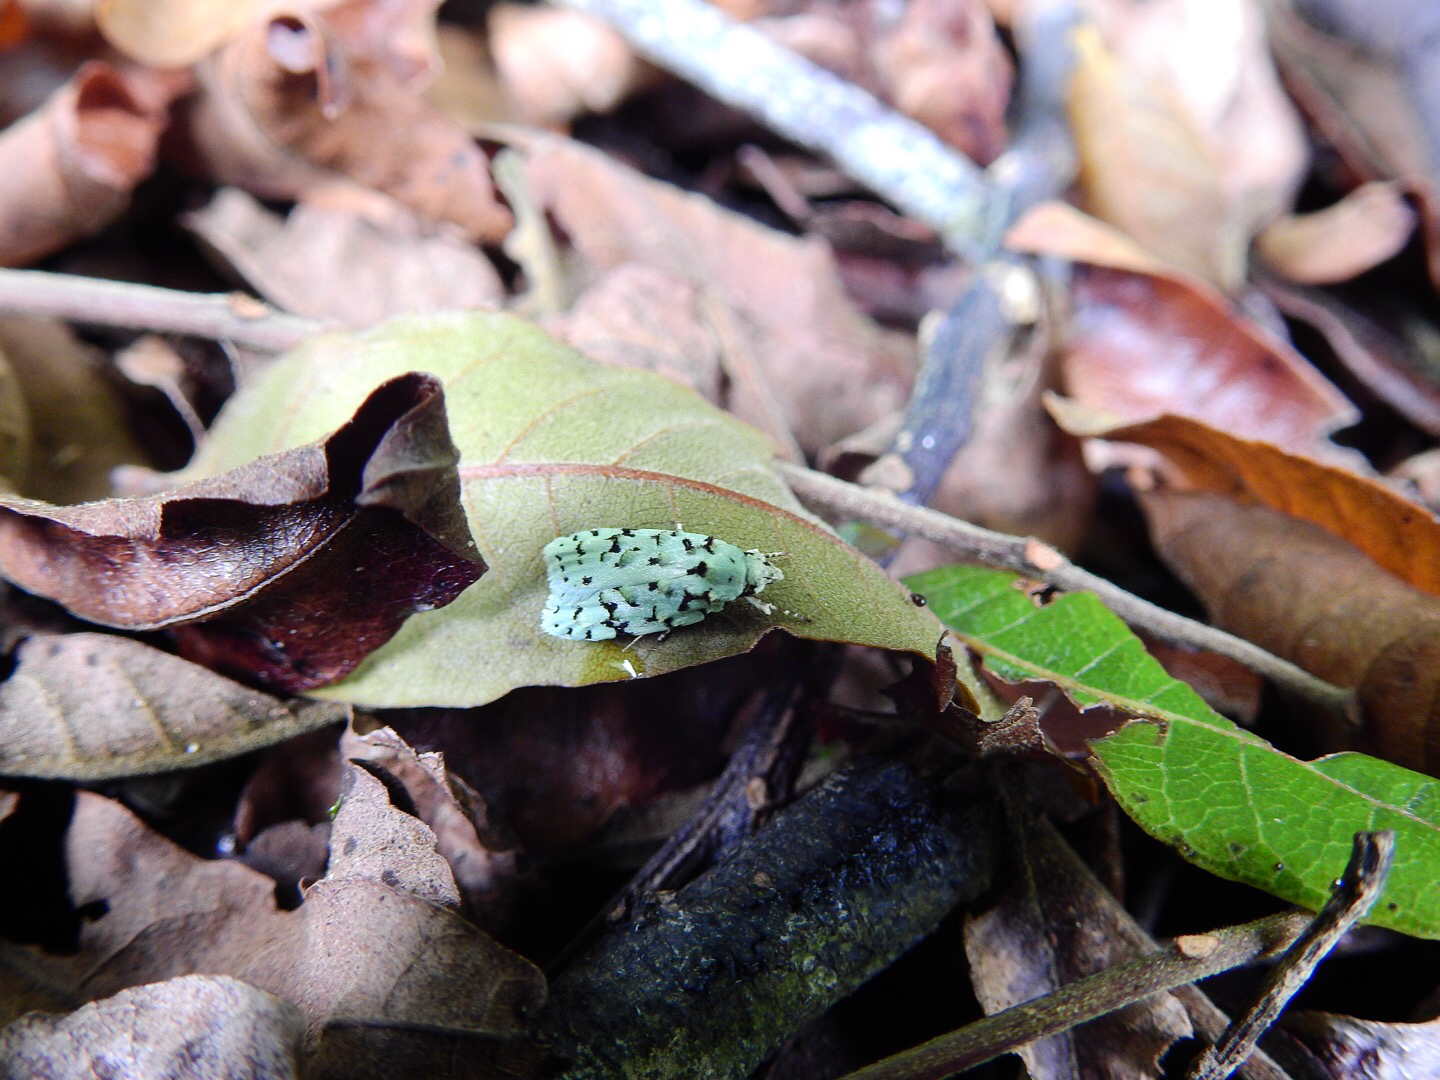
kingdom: Animalia
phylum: Arthropoda
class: Insecta
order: Lepidoptera
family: Oecophoridae
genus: Izatha
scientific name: Izatha peroneanella
